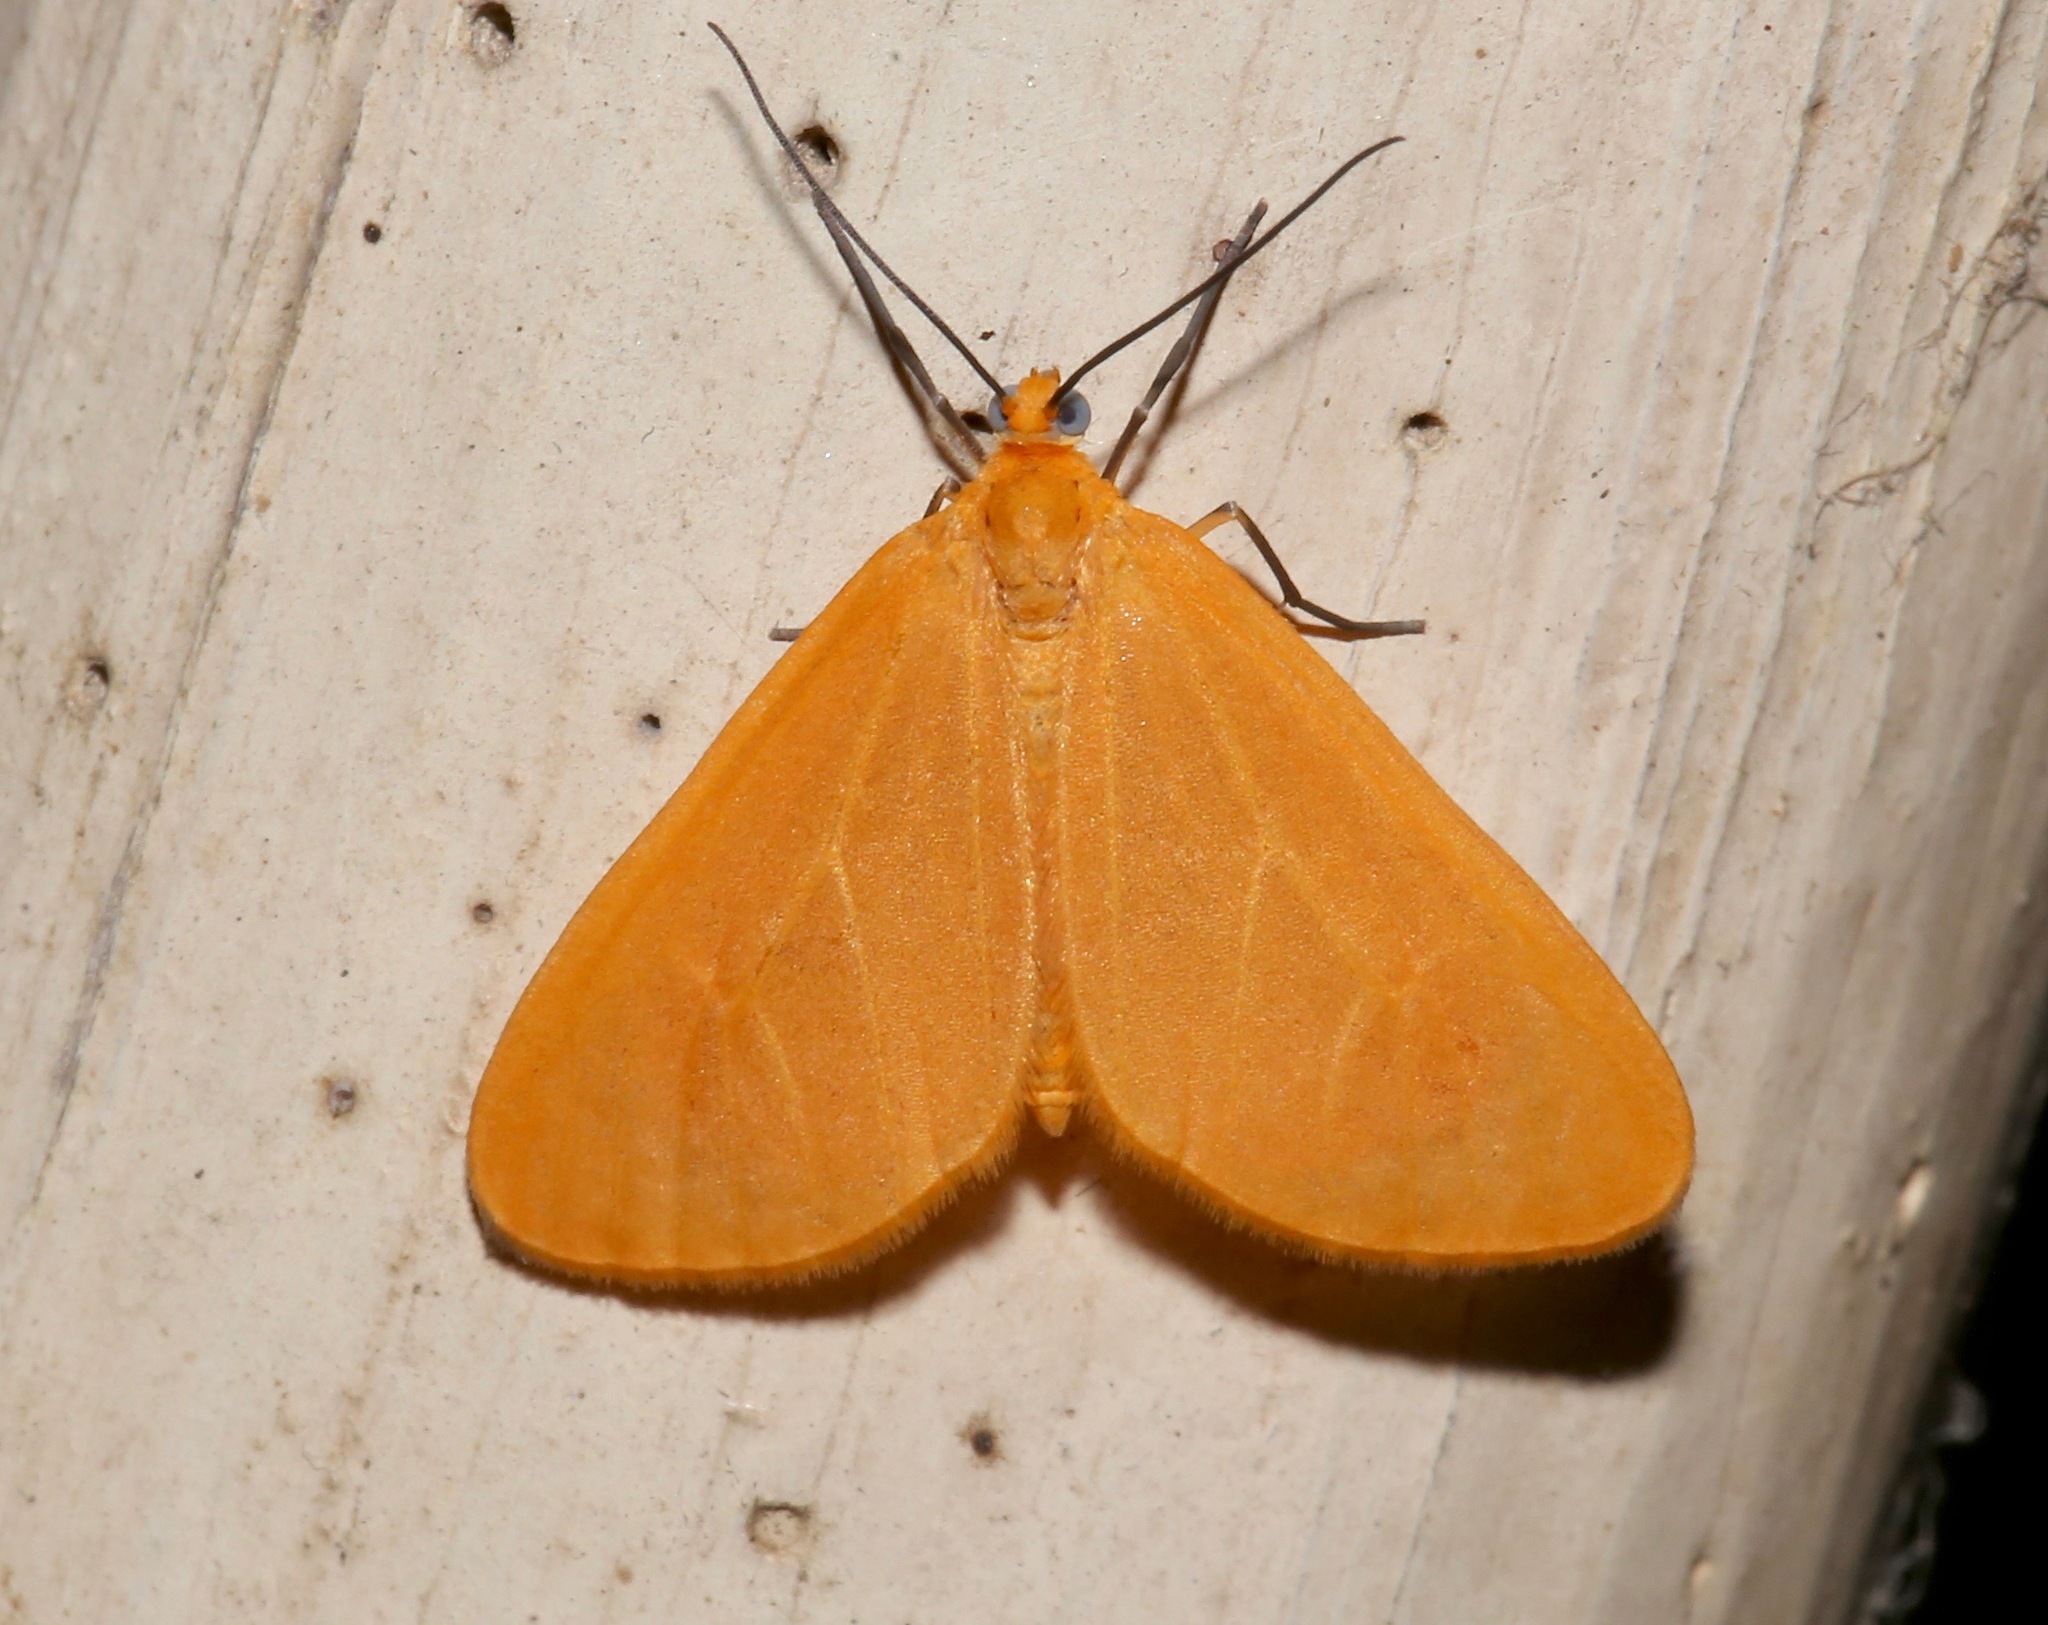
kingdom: Animalia
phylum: Arthropoda
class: Insecta
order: Lepidoptera
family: Geometridae
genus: Eubaphe
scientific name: Eubaphe unicolor
